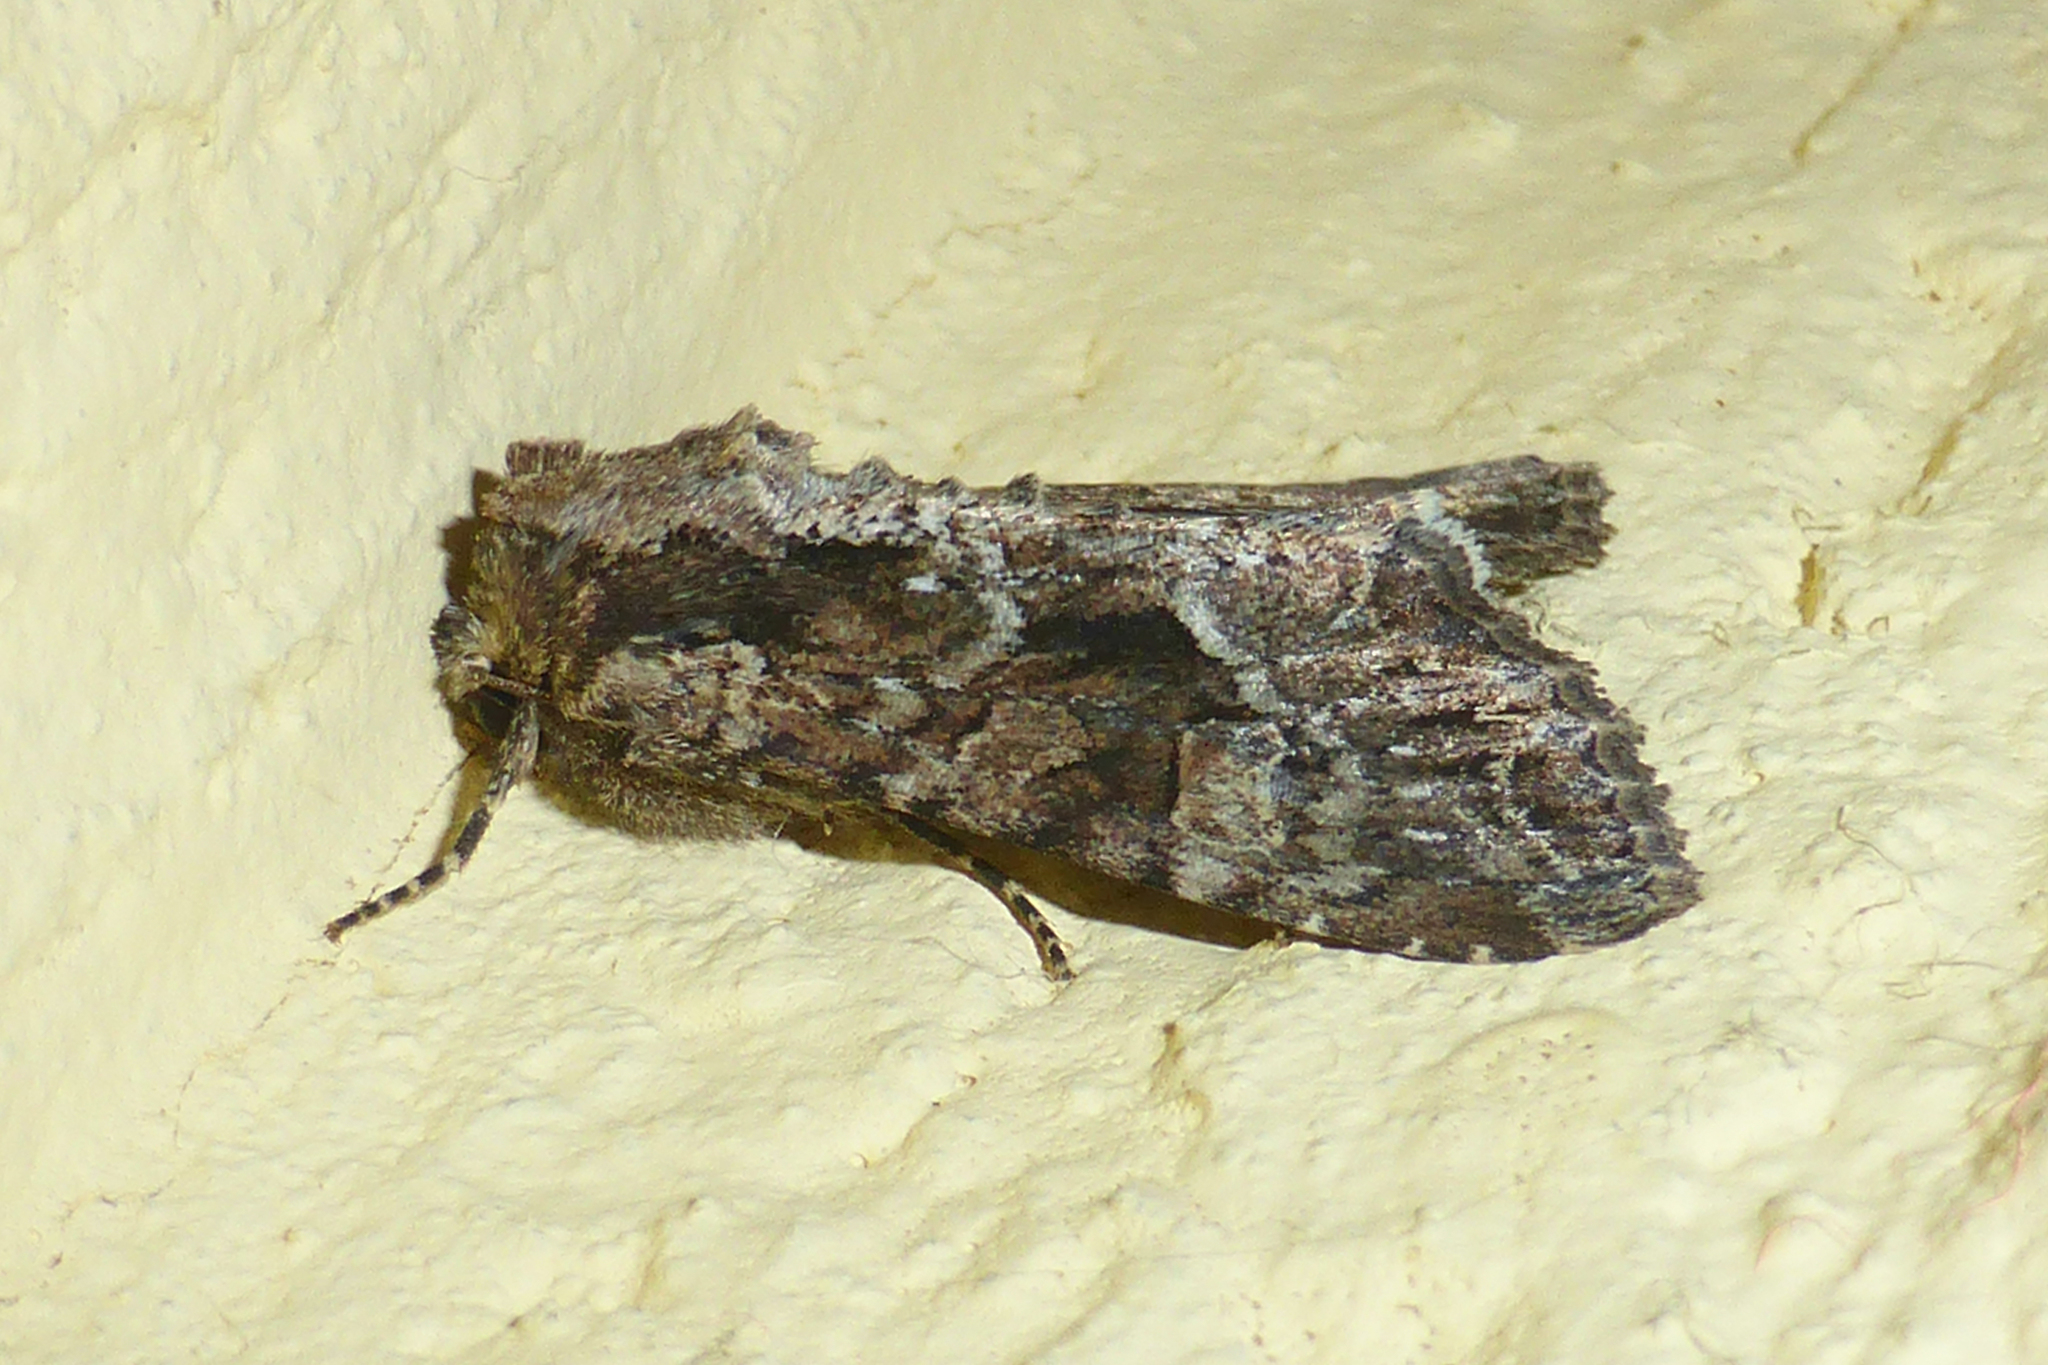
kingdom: Animalia
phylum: Arthropoda
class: Insecta
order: Lepidoptera
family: Noctuidae
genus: Lacanobia
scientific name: Lacanobia thalassina
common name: Pale-shouldered brocade
